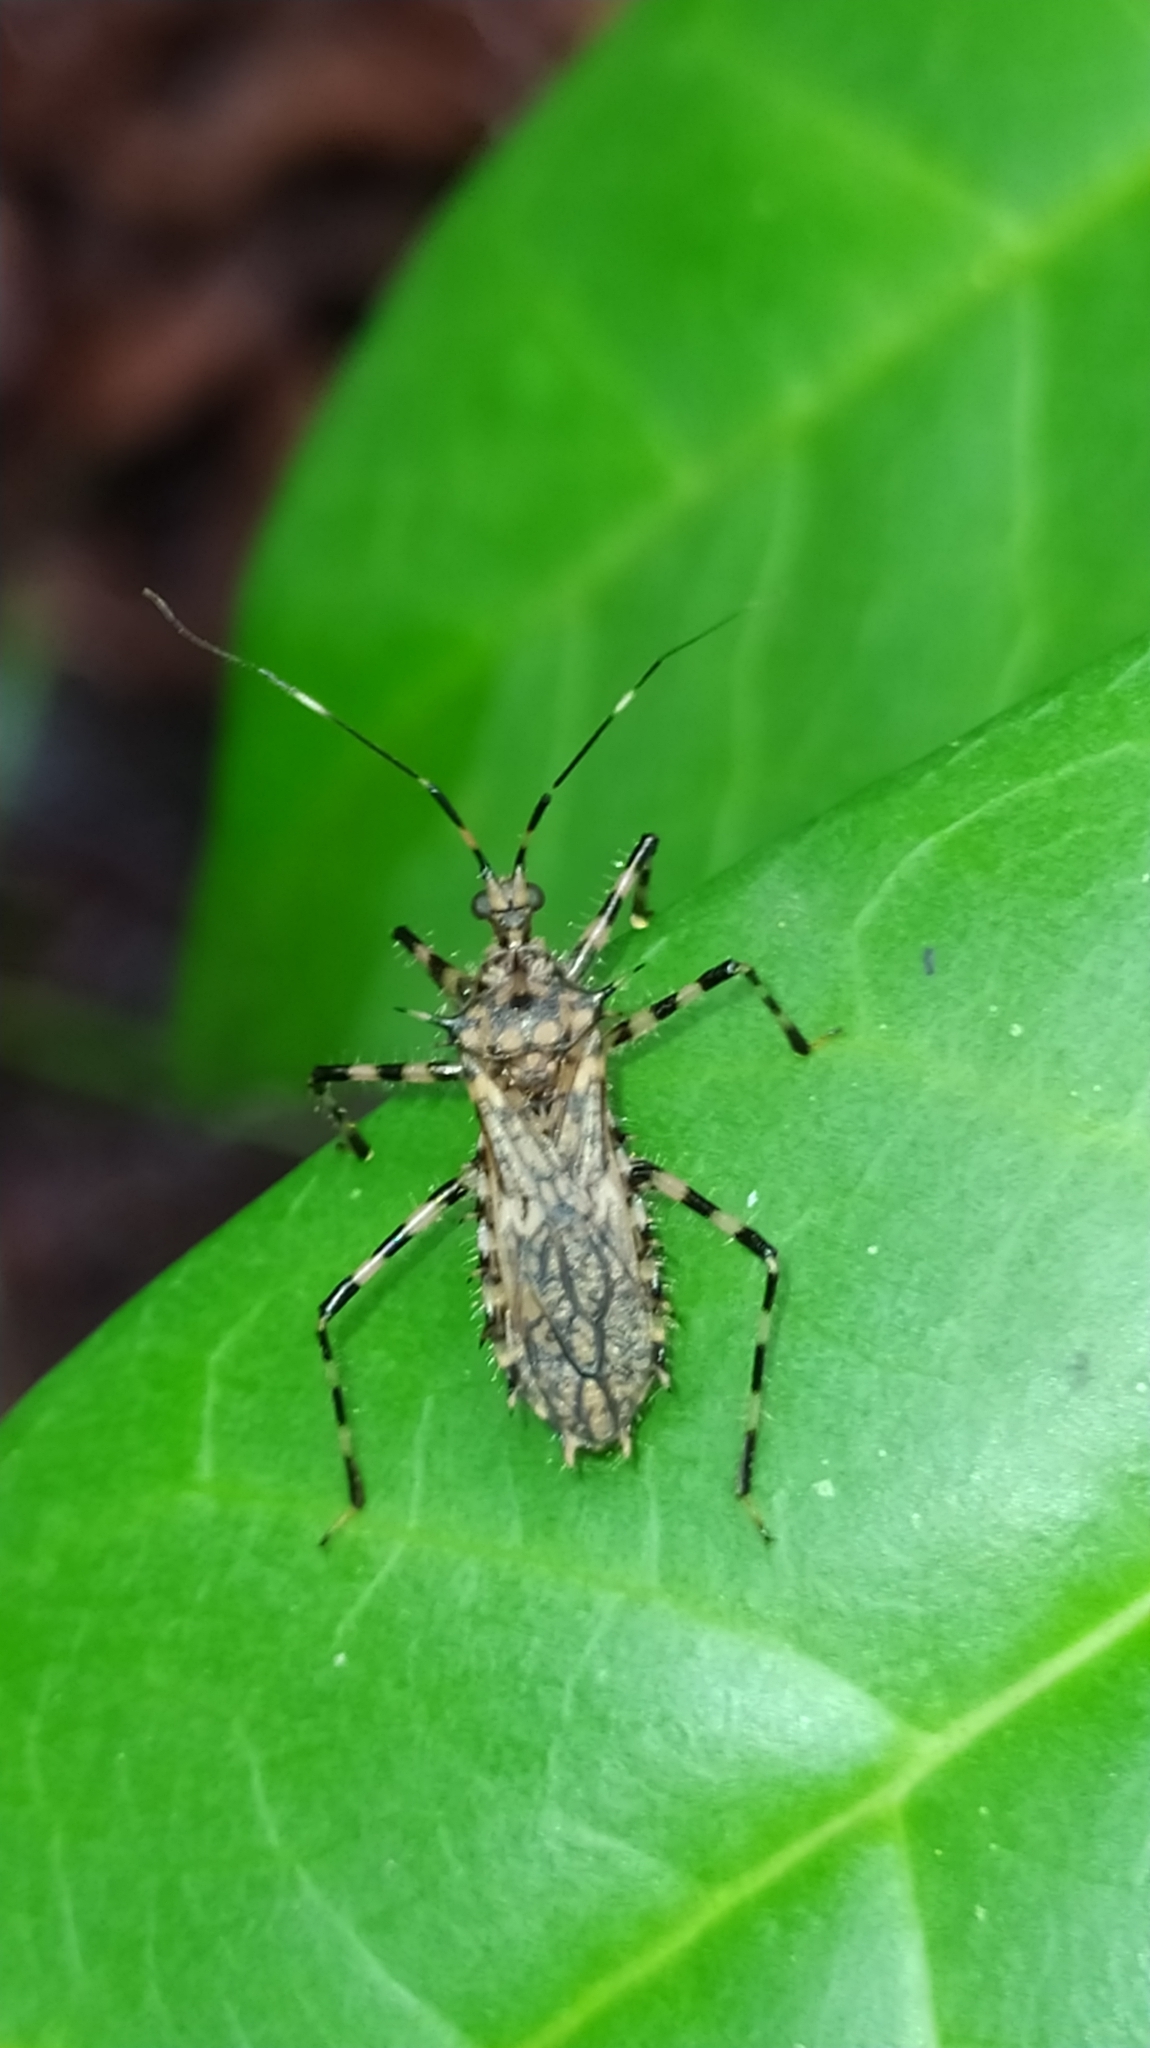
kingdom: Animalia
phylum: Arthropoda
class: Insecta
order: Hemiptera
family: Reduviidae
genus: Salyavata
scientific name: Salyavata variegata
